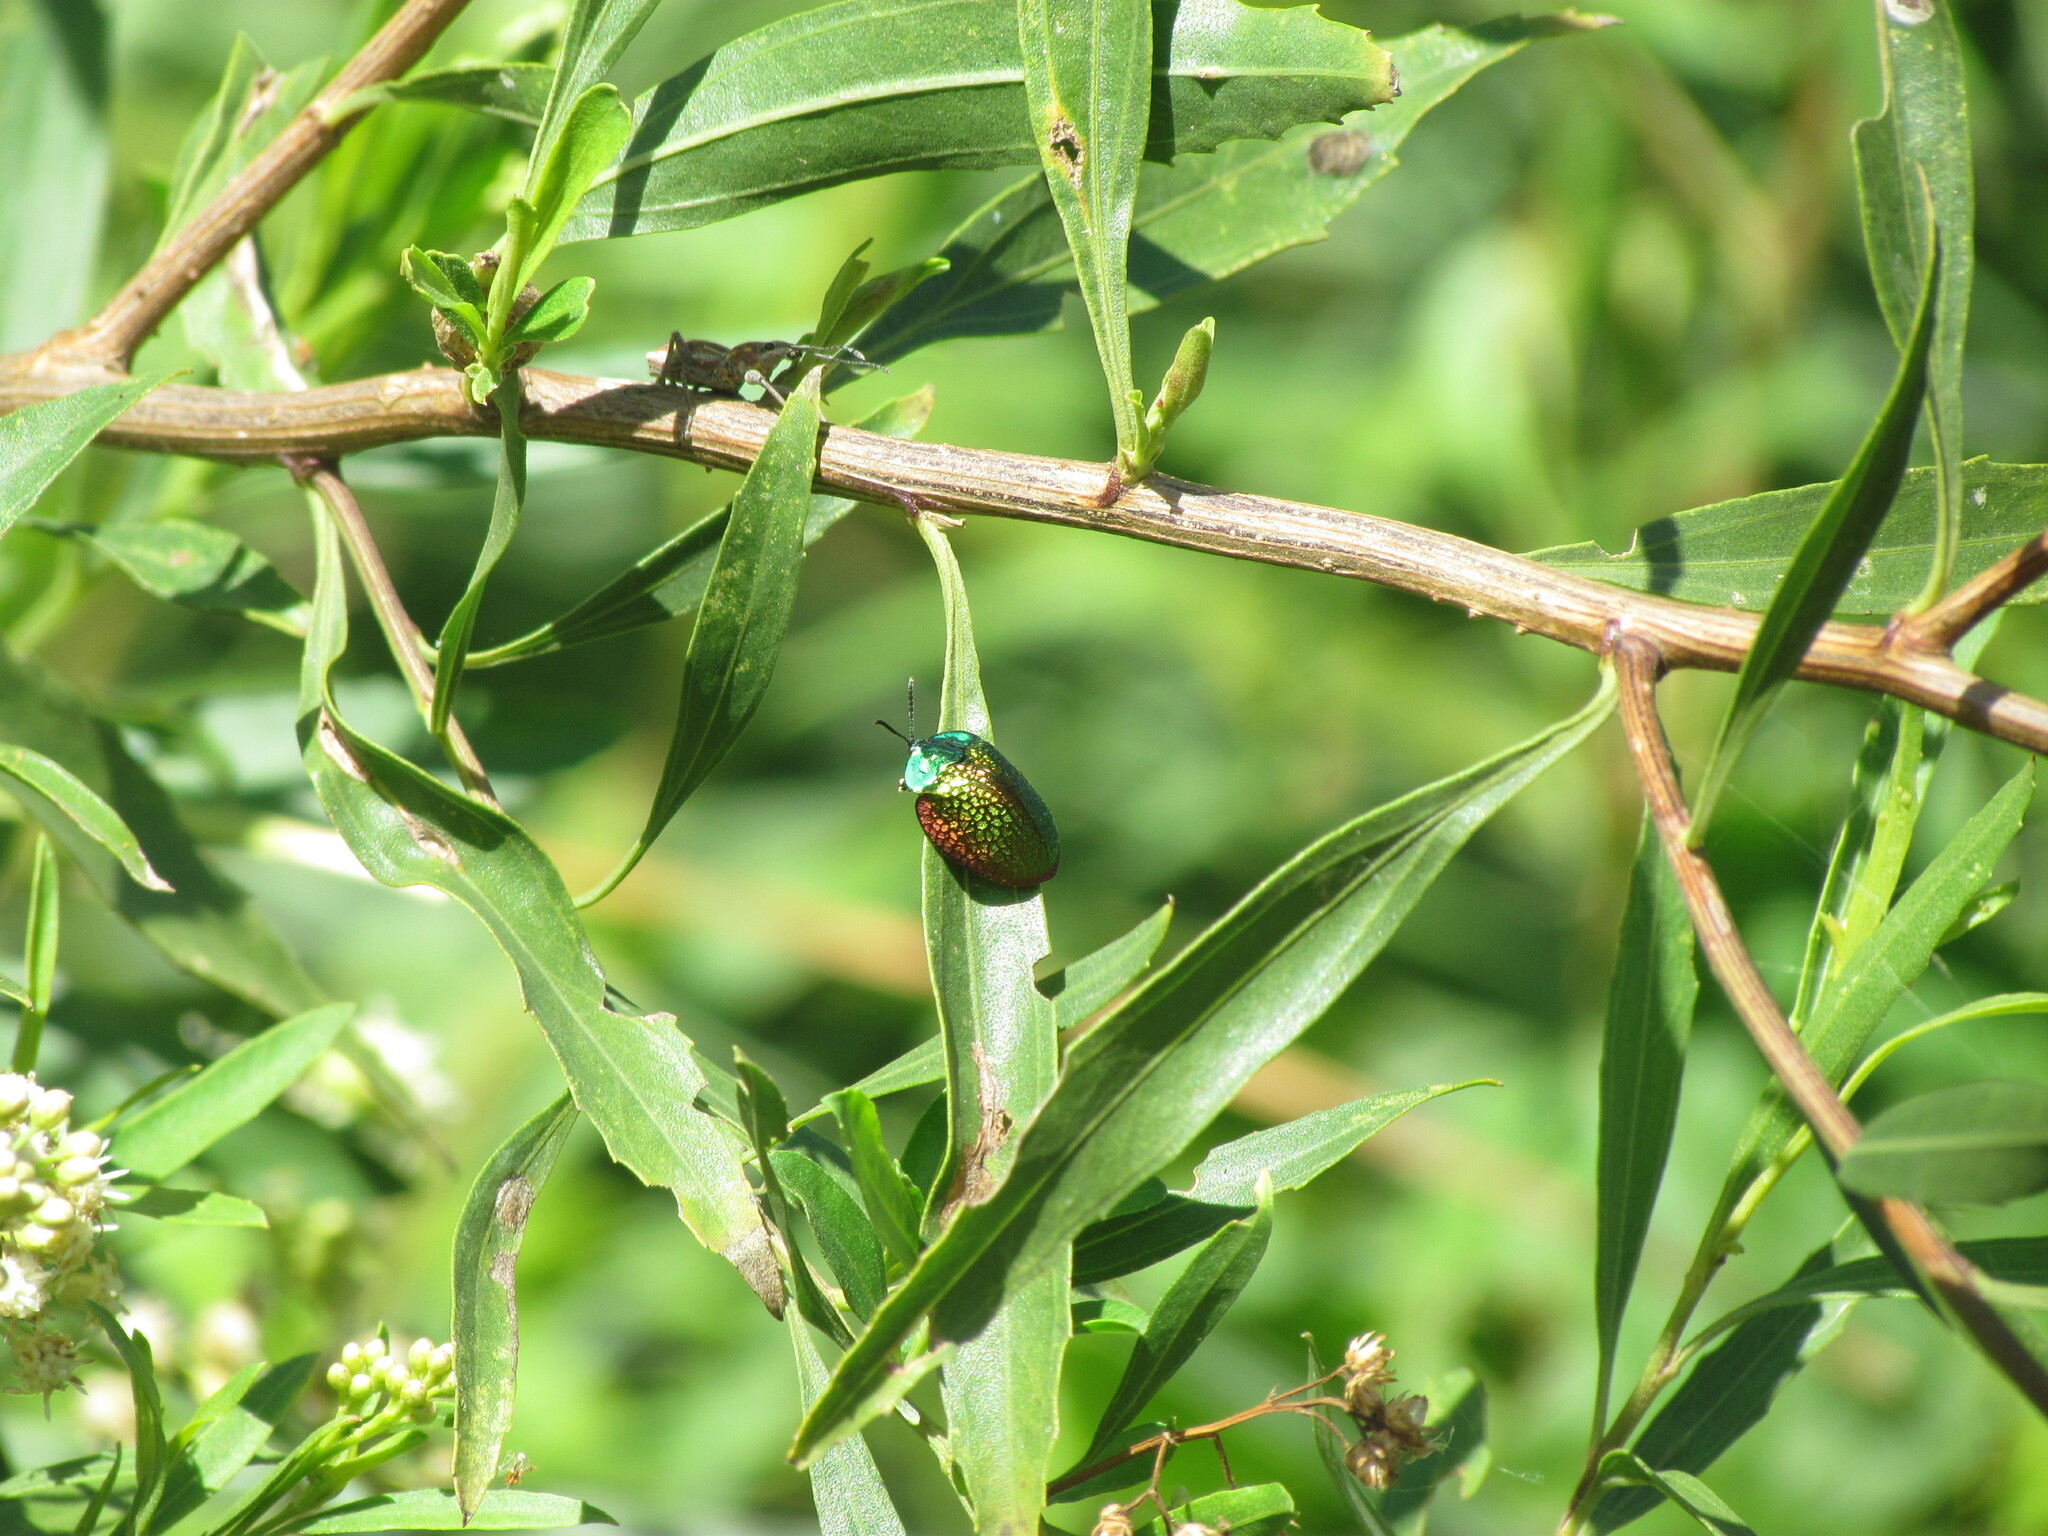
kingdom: Animalia
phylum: Arthropoda
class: Insecta
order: Coleoptera
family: Chrysomelidae
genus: Stolas
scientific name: Stolas festiva
